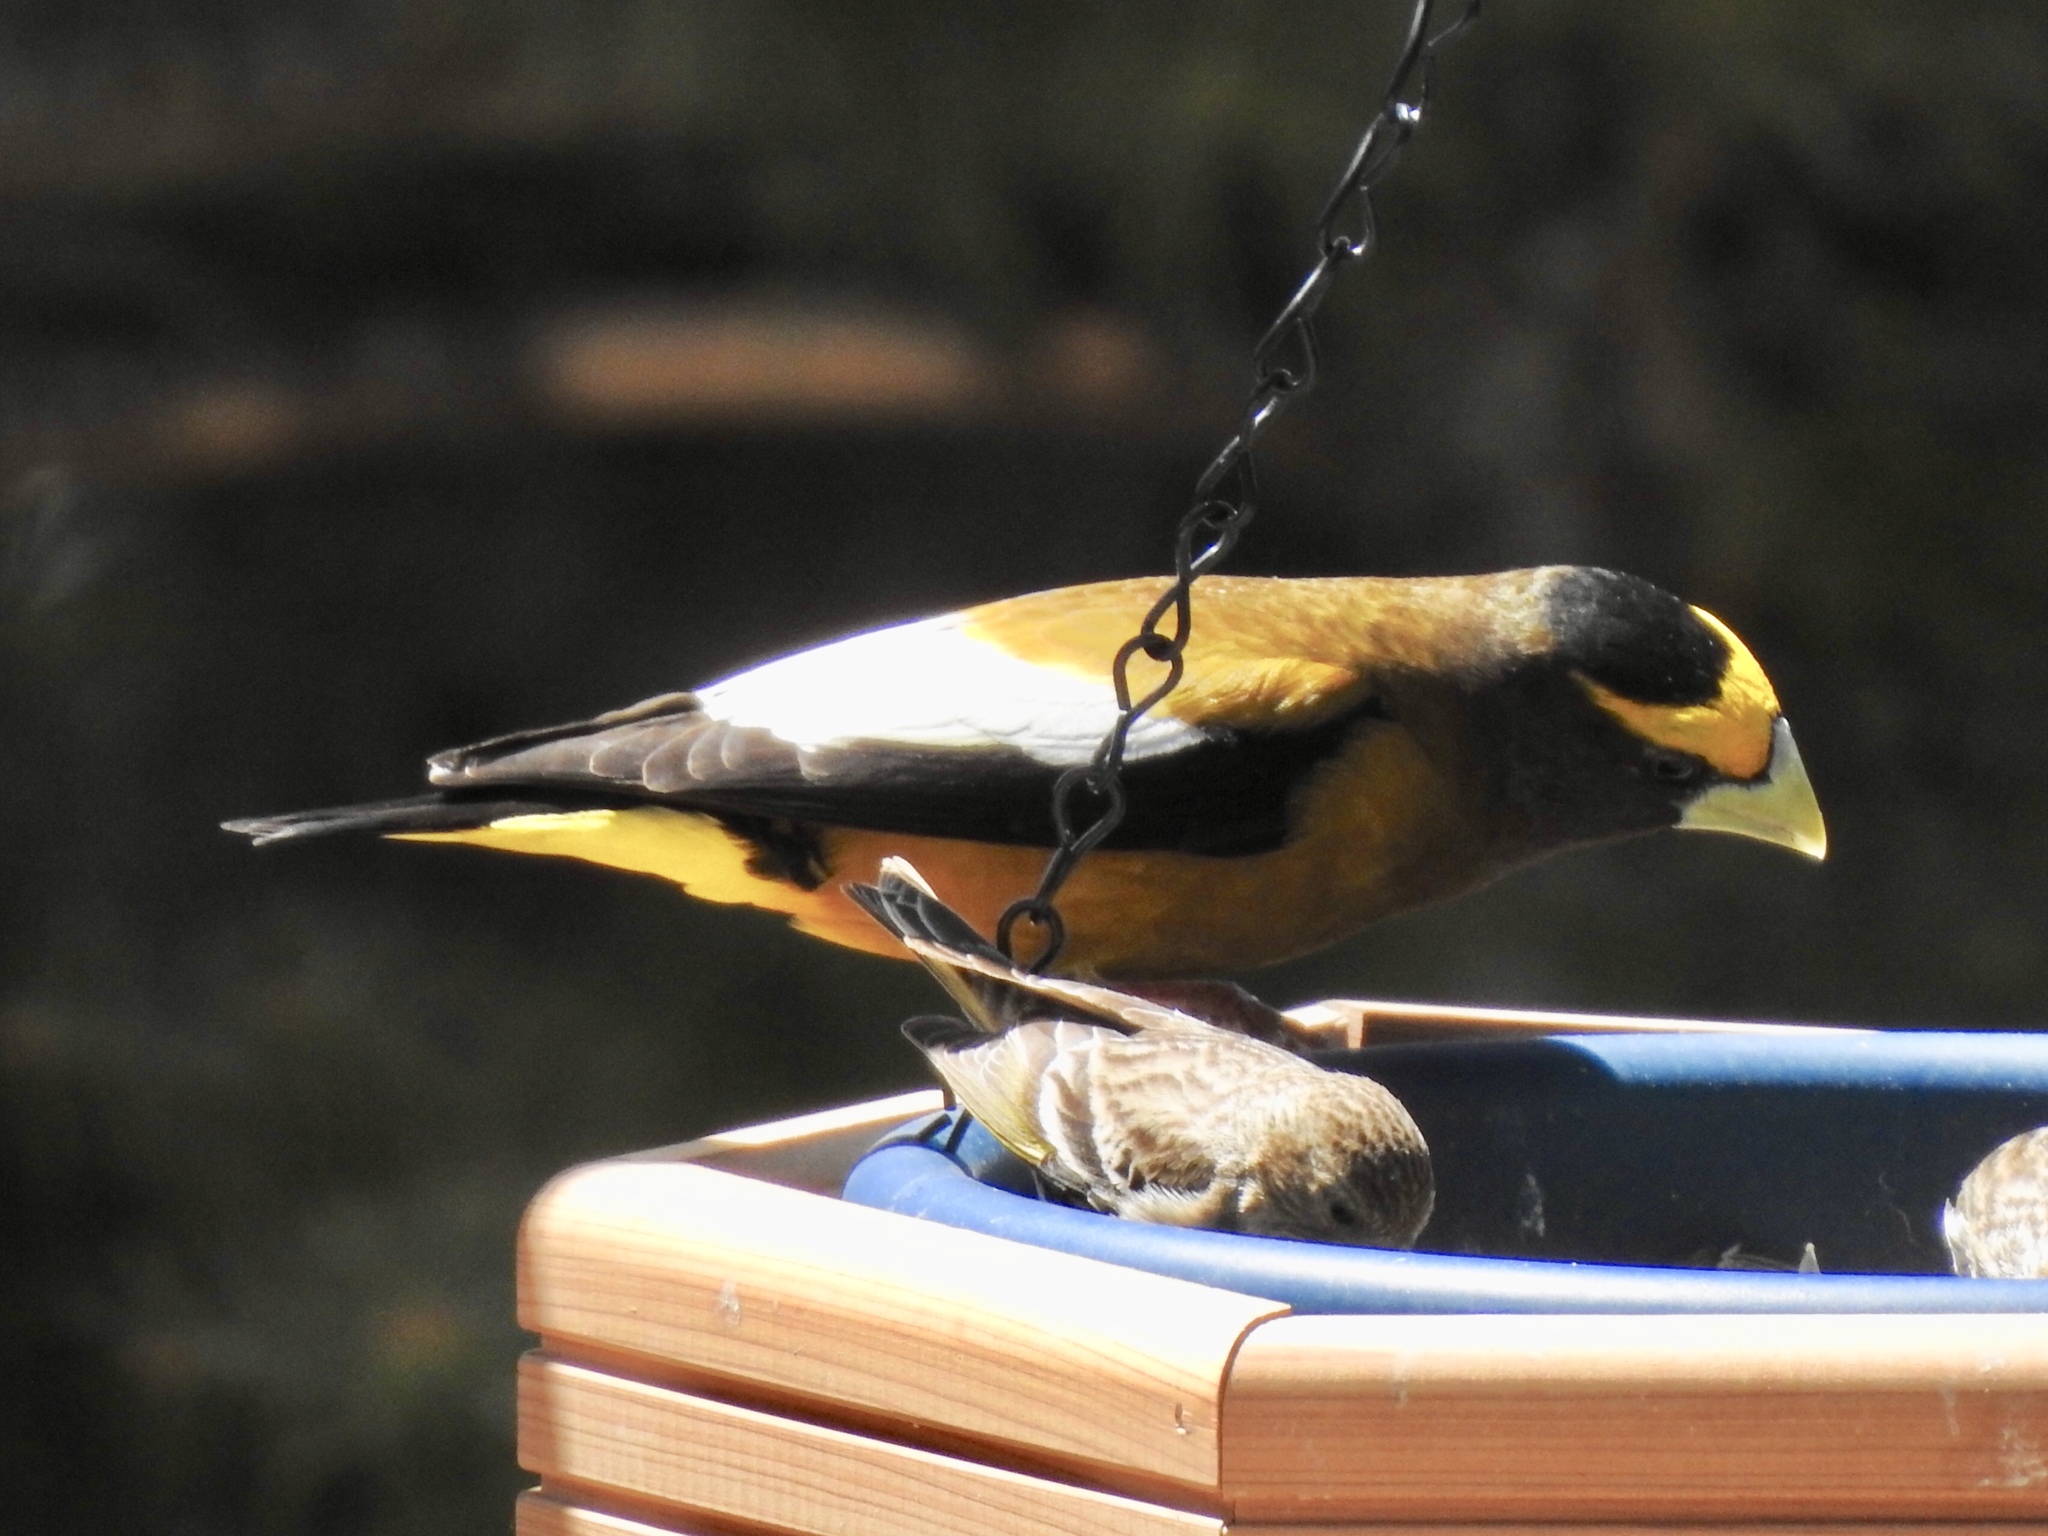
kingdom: Animalia
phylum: Chordata
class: Aves
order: Passeriformes
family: Fringillidae
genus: Hesperiphona
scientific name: Hesperiphona vespertina
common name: Evening grosbeak
